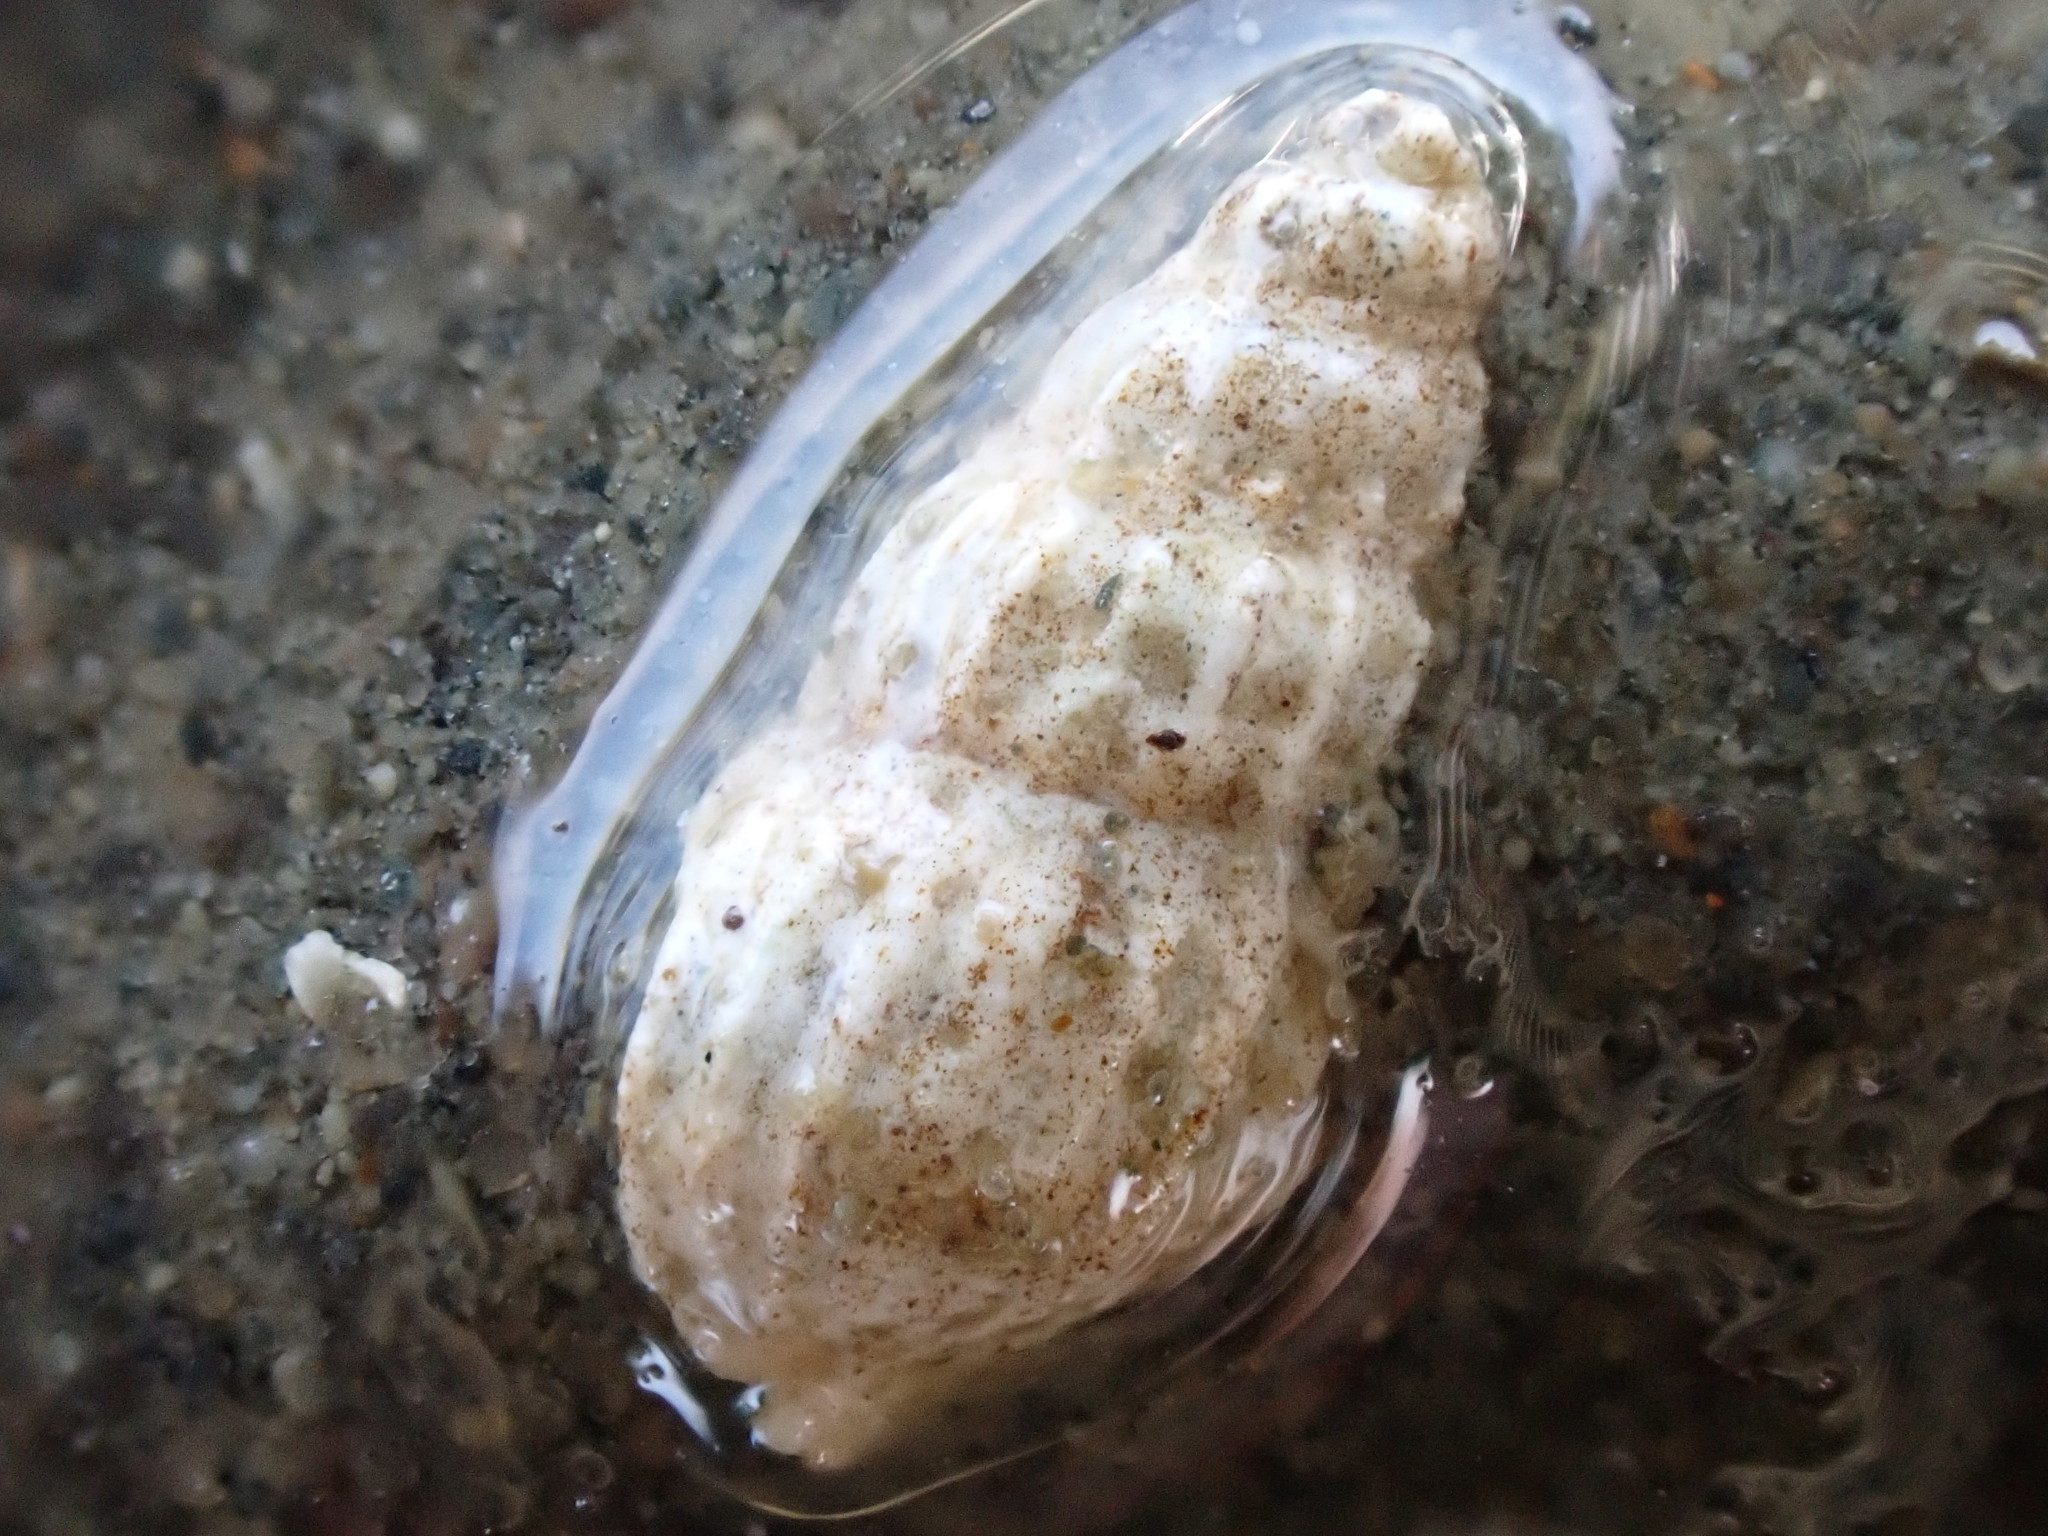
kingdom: Animalia
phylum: Mollusca
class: Gastropoda
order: Neogastropoda
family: Mangeliidae
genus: Neoguraleus
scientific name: Neoguraleus finlayi
